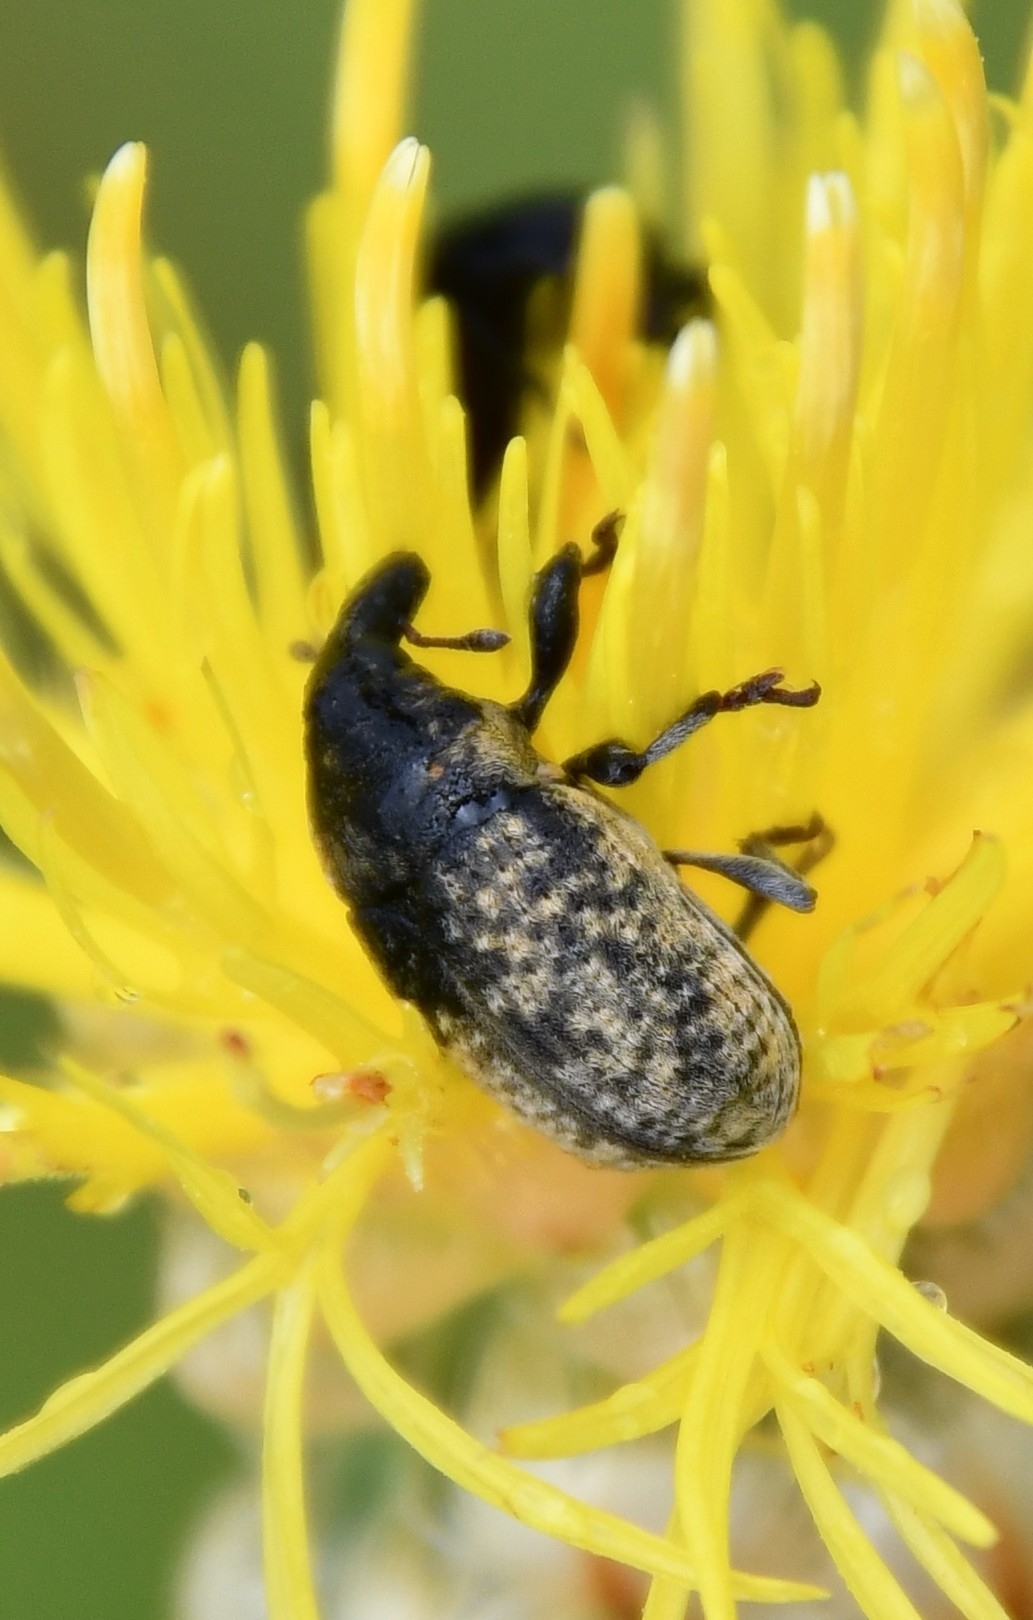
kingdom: Animalia
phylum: Arthropoda
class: Insecta
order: Coleoptera
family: Curculionidae
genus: Larinus
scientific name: Larinus canescens
